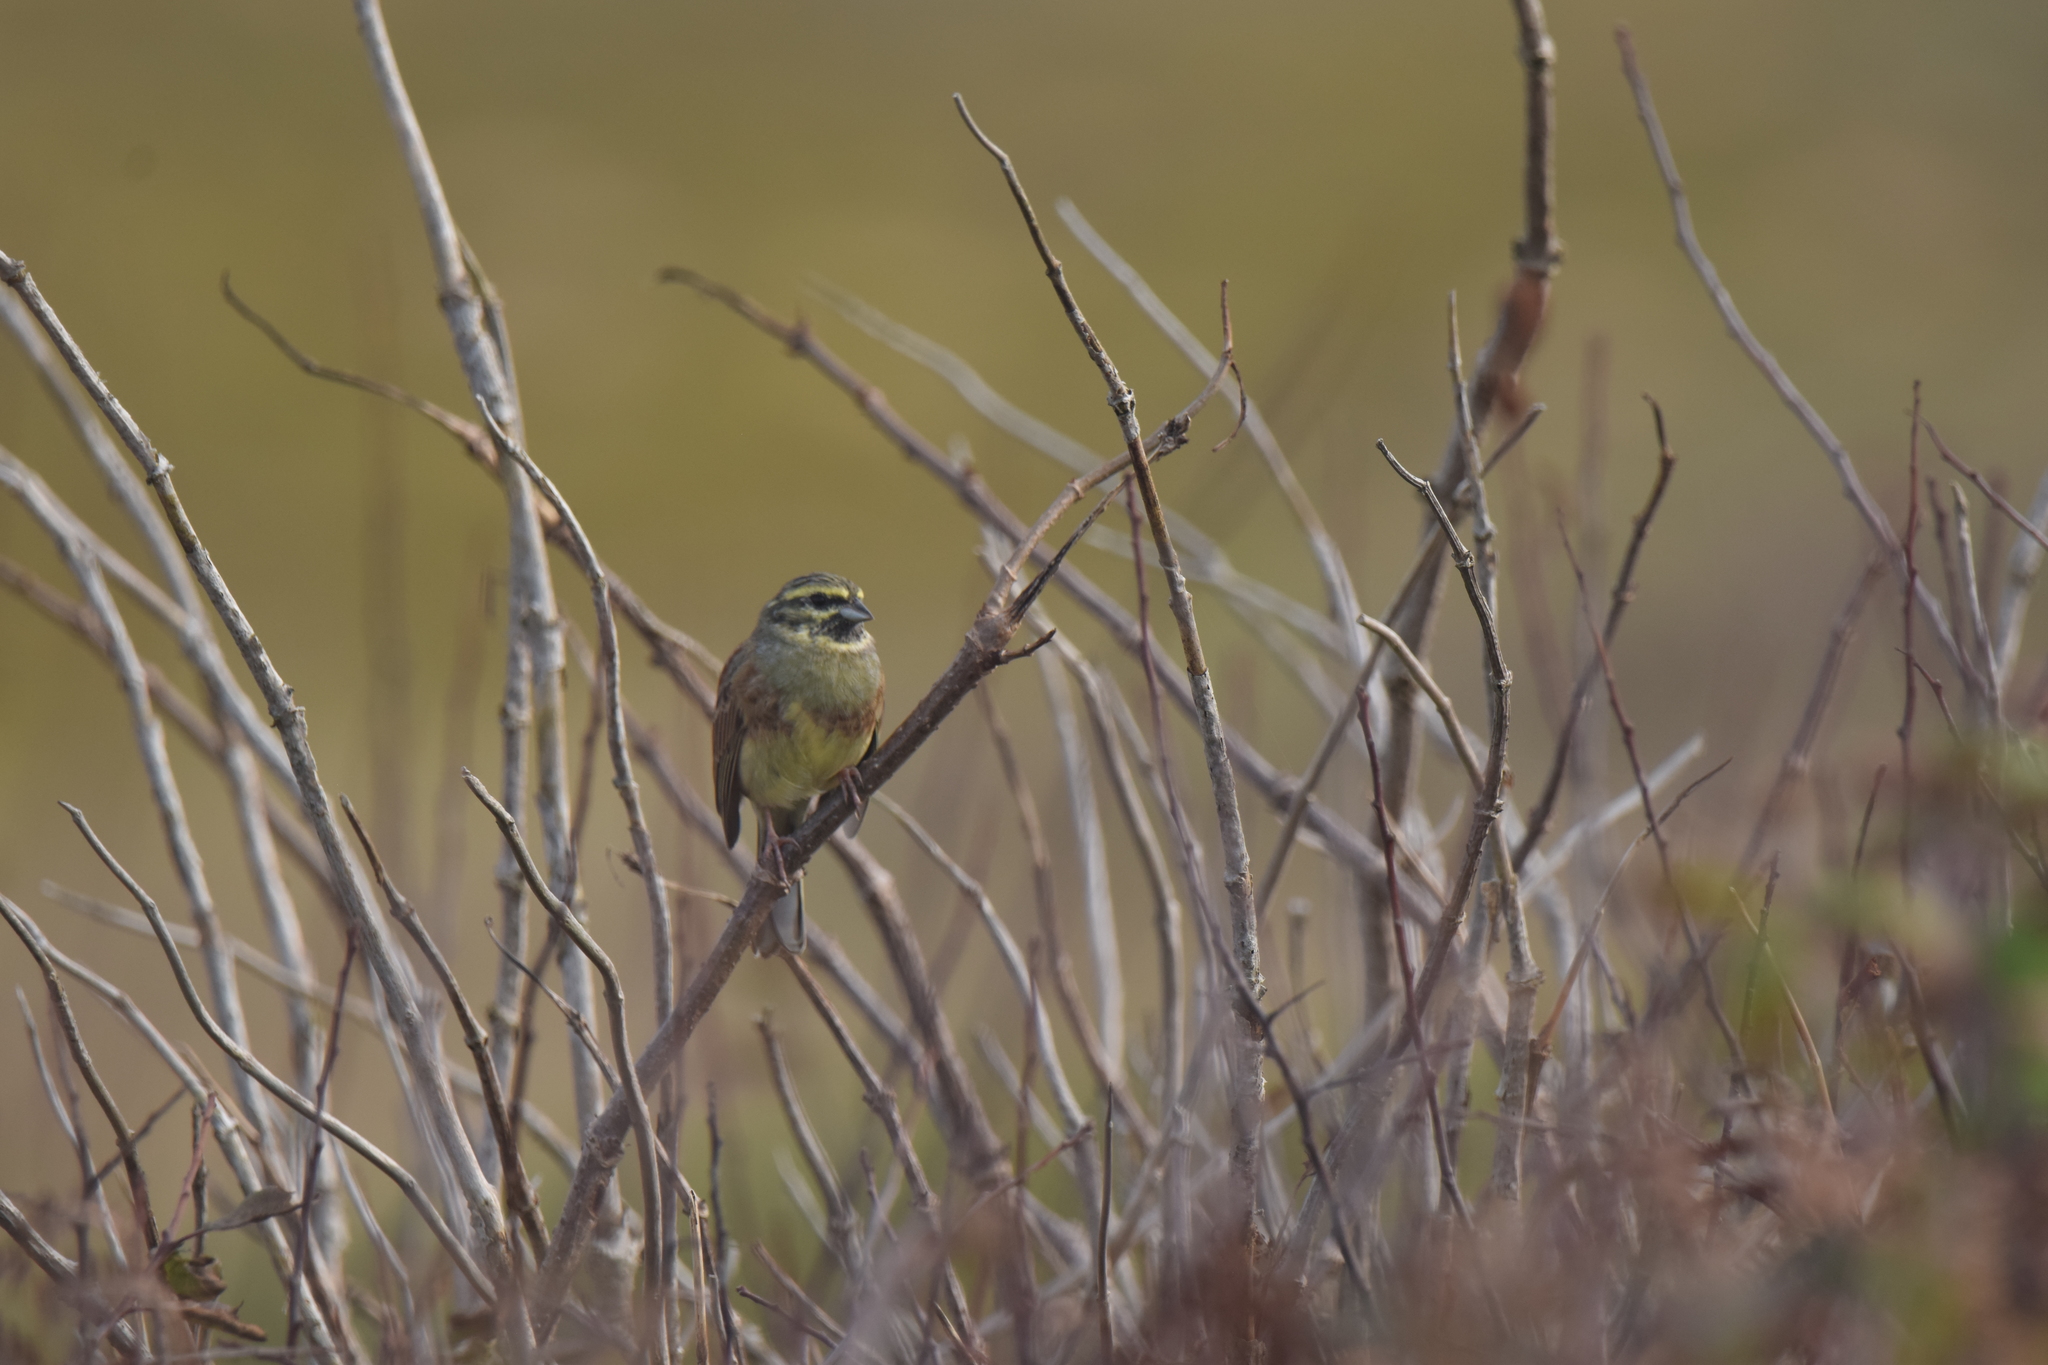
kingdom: Animalia
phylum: Chordata
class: Aves
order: Passeriformes
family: Emberizidae
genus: Emberiza
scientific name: Emberiza cirlus
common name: Cirl bunting
